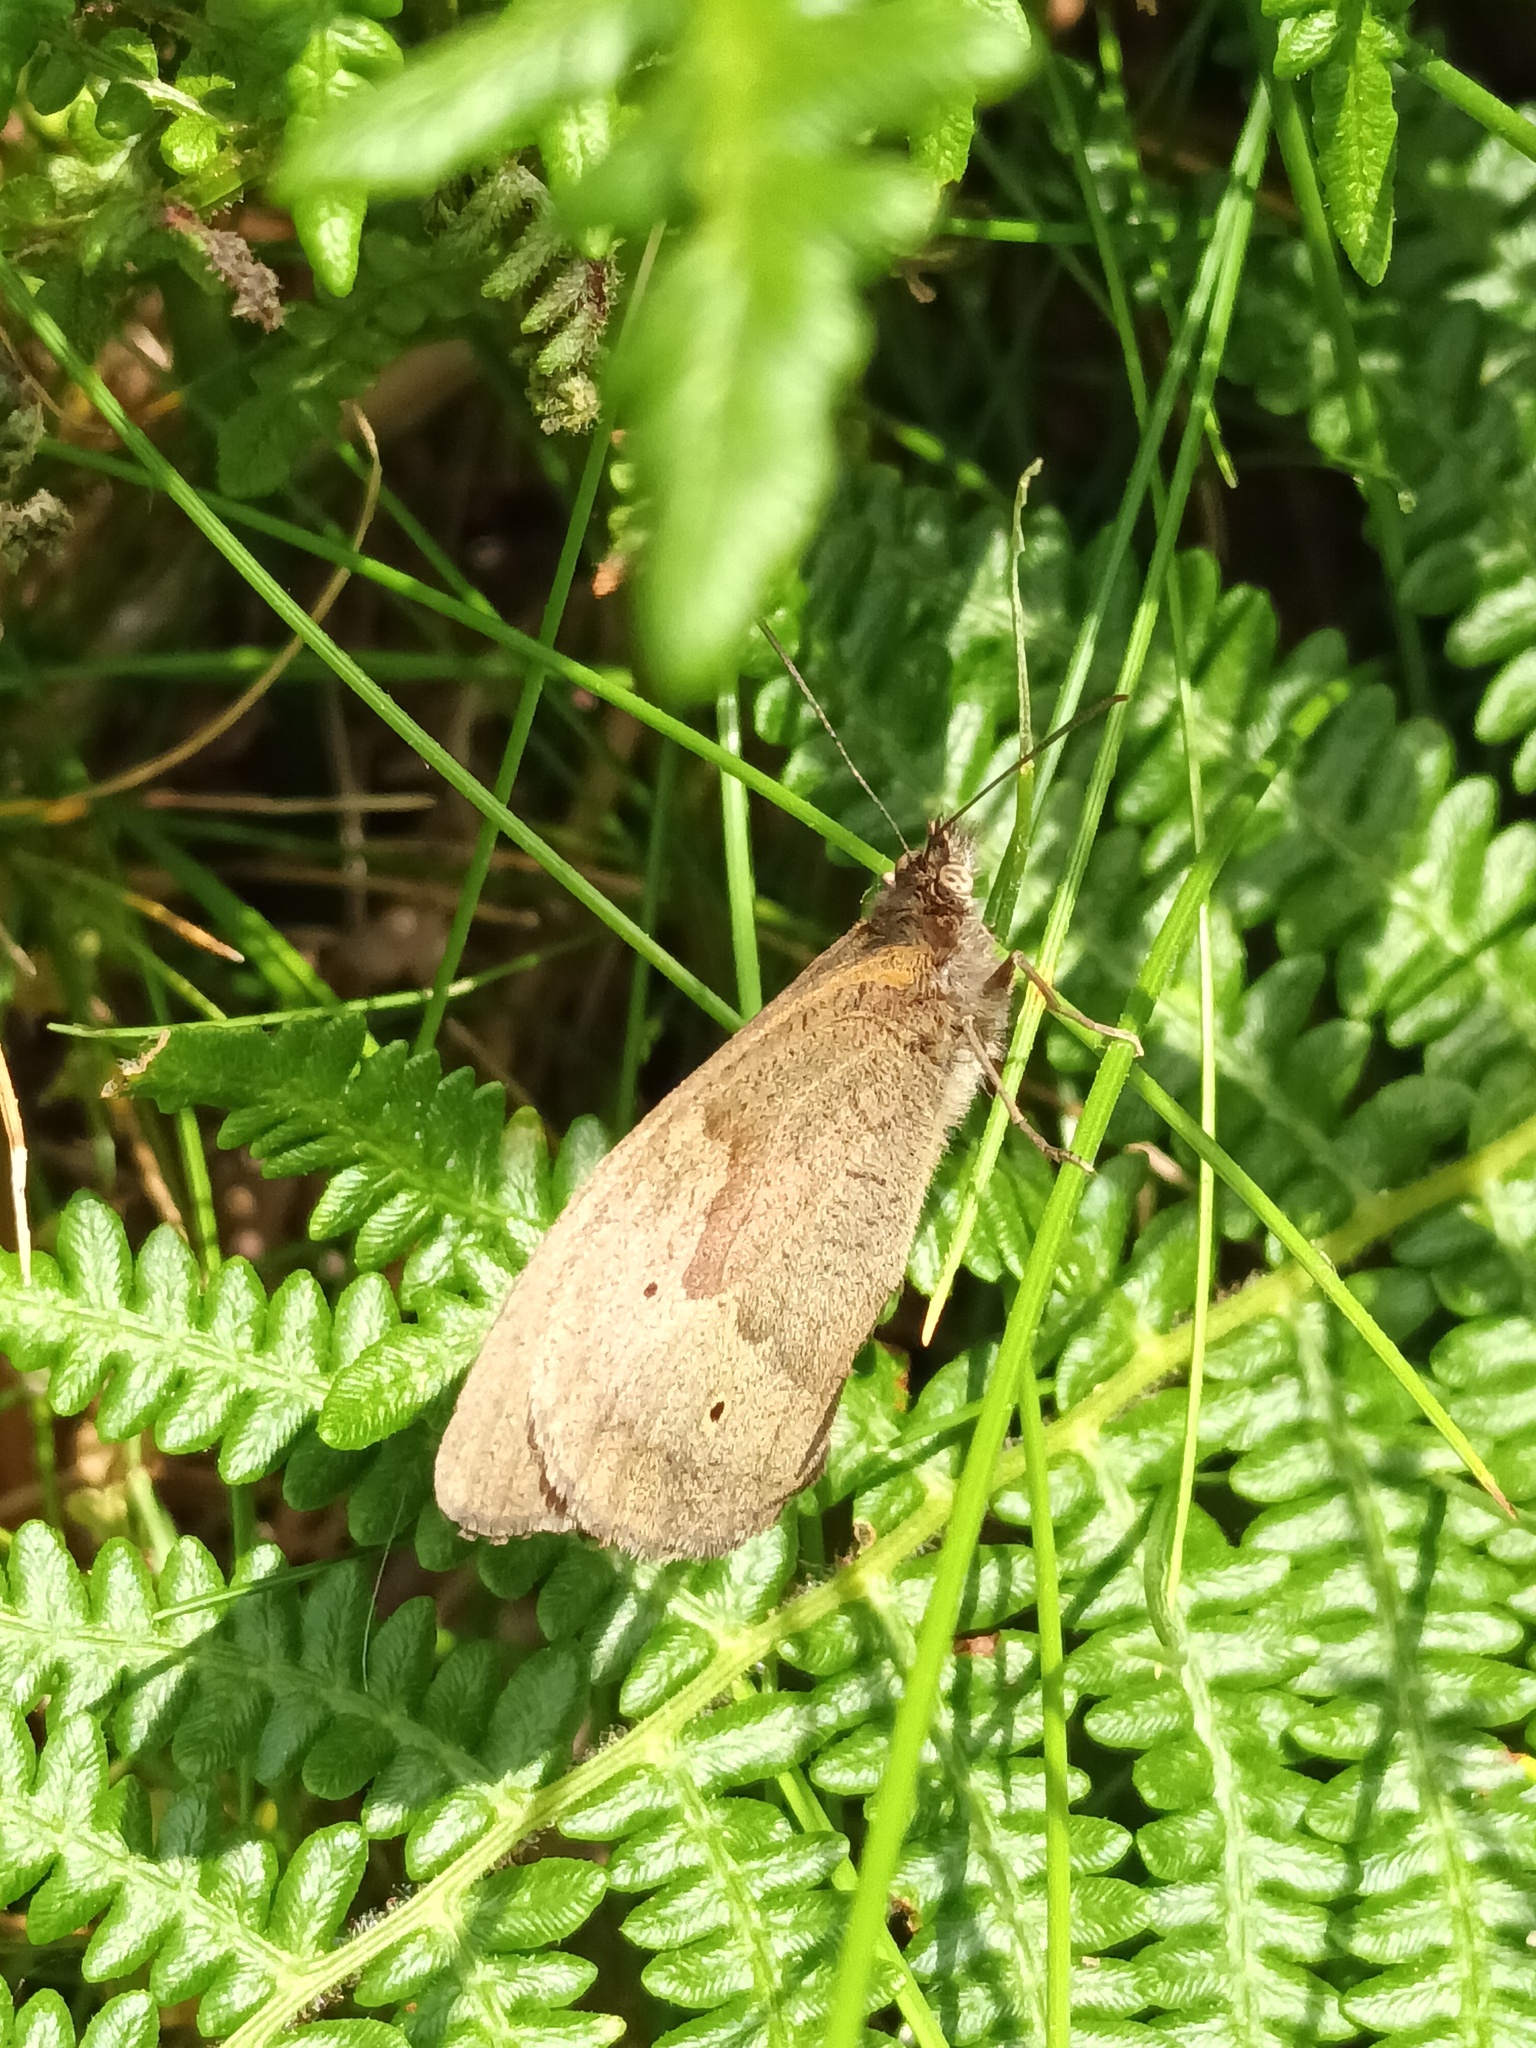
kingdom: Animalia
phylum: Arthropoda
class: Insecta
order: Lepidoptera
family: Nymphalidae
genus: Maniola
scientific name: Maniola jurtina
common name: Meadow brown
